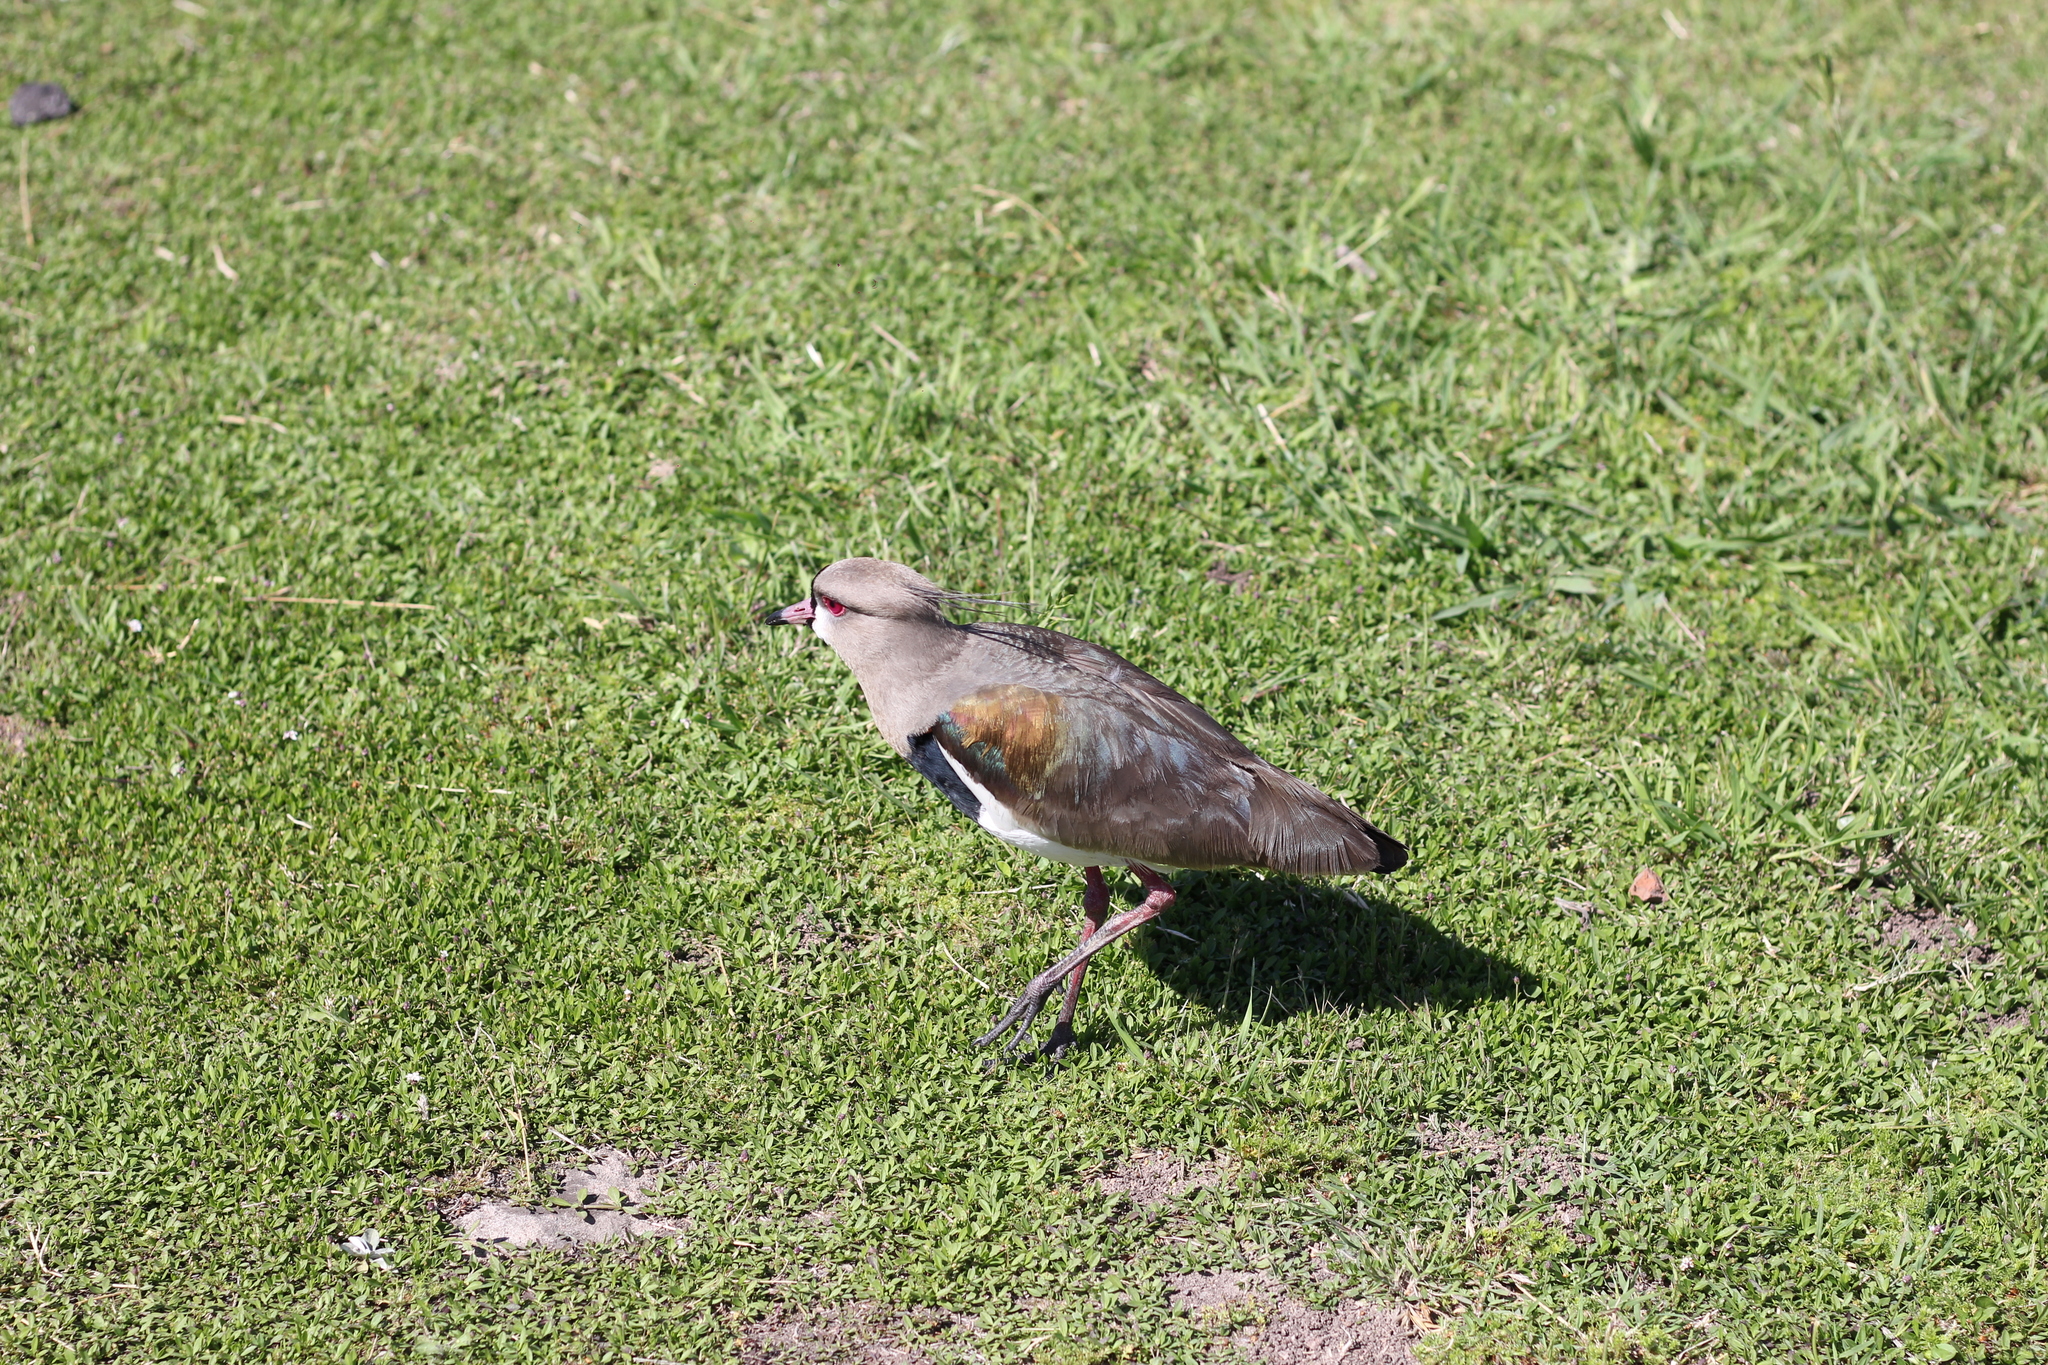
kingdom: Animalia
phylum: Chordata
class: Aves
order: Charadriiformes
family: Charadriidae
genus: Vanellus
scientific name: Vanellus chilensis
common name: Southern lapwing
